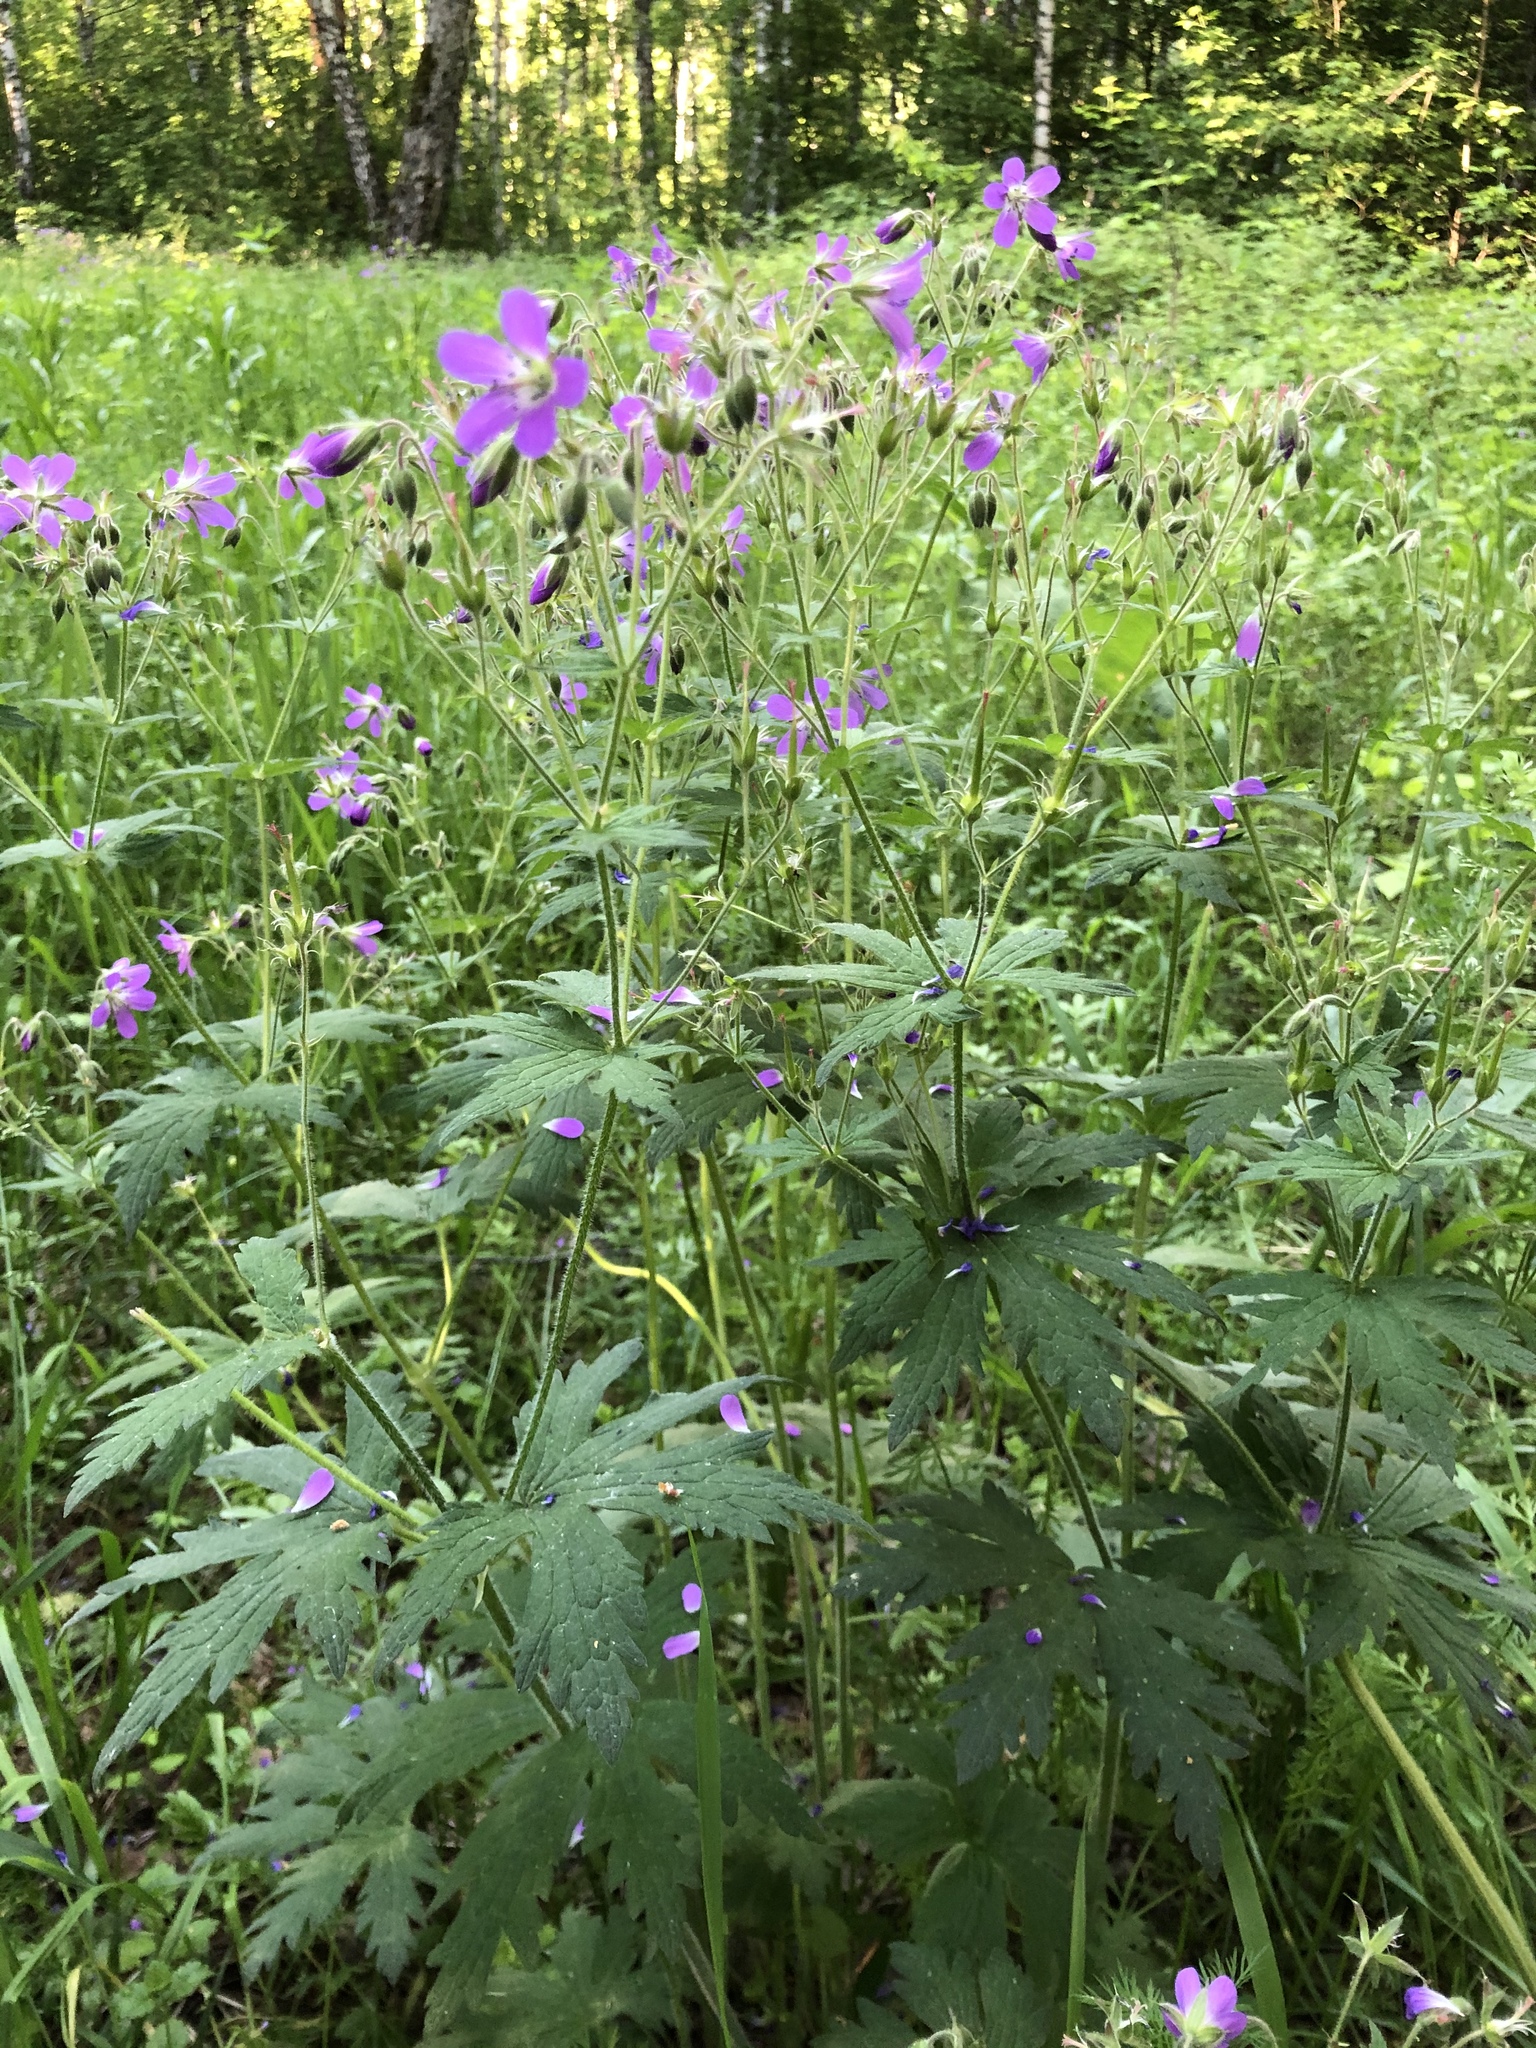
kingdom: Plantae
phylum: Tracheophyta
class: Magnoliopsida
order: Geraniales
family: Geraniaceae
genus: Geranium
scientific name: Geranium sylvaticum
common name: Wood crane's-bill
